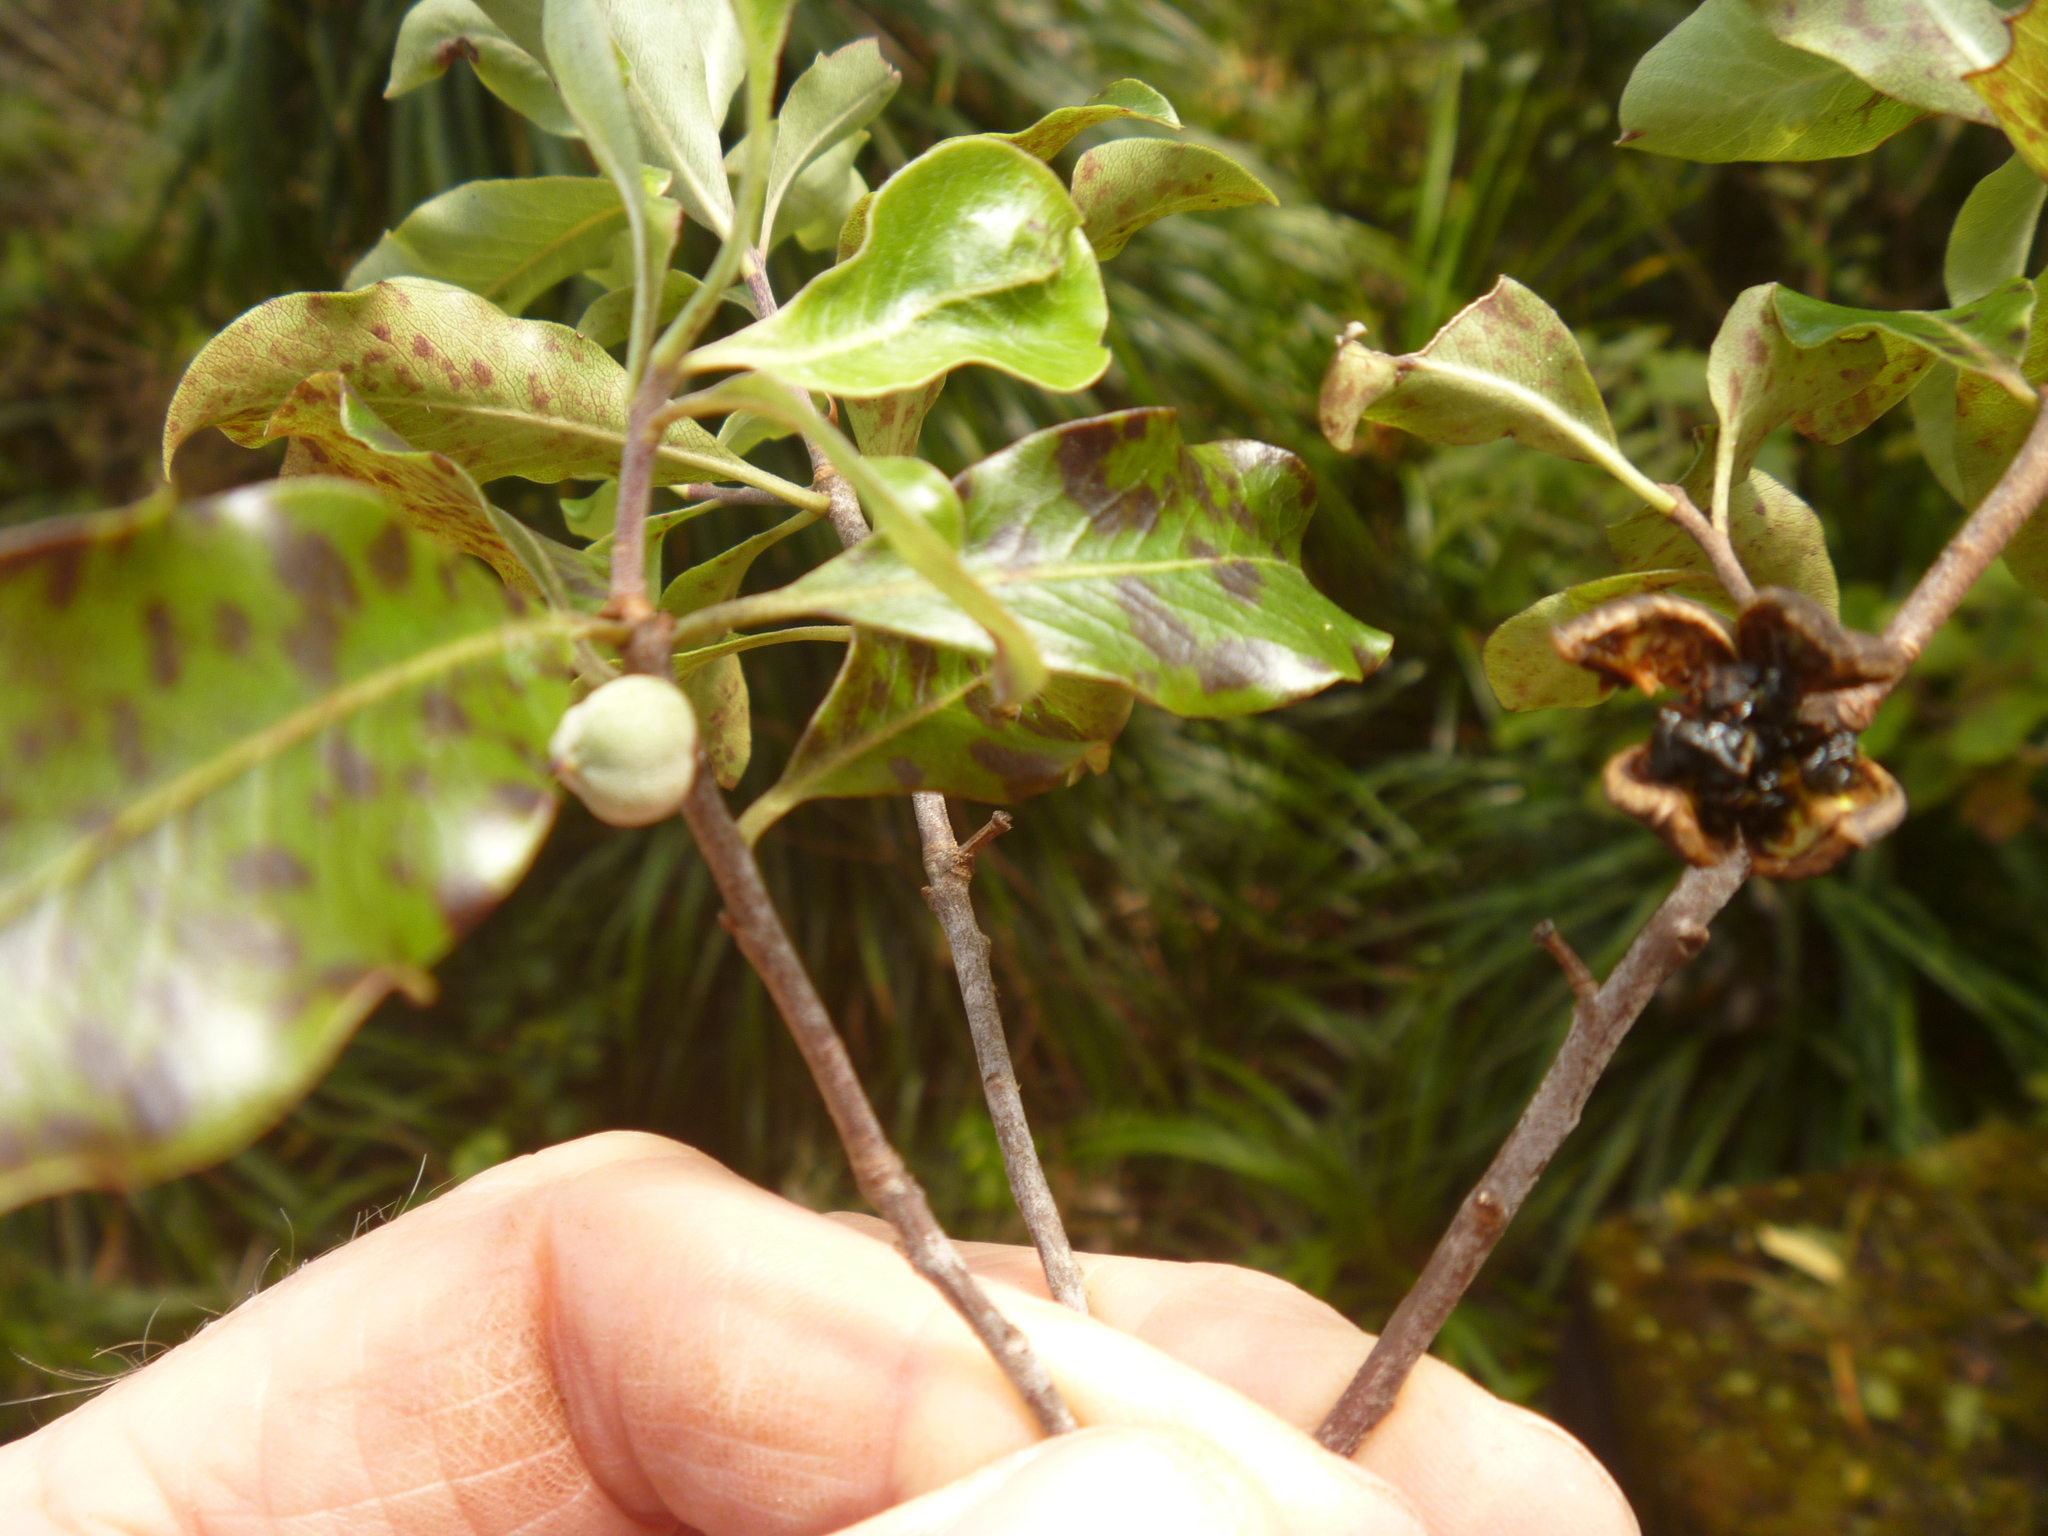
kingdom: Plantae
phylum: Tracheophyta
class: Magnoliopsida
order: Apiales
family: Pittosporaceae
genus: Pittosporum
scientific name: Pittosporum tenuifolium
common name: Kohuhu
